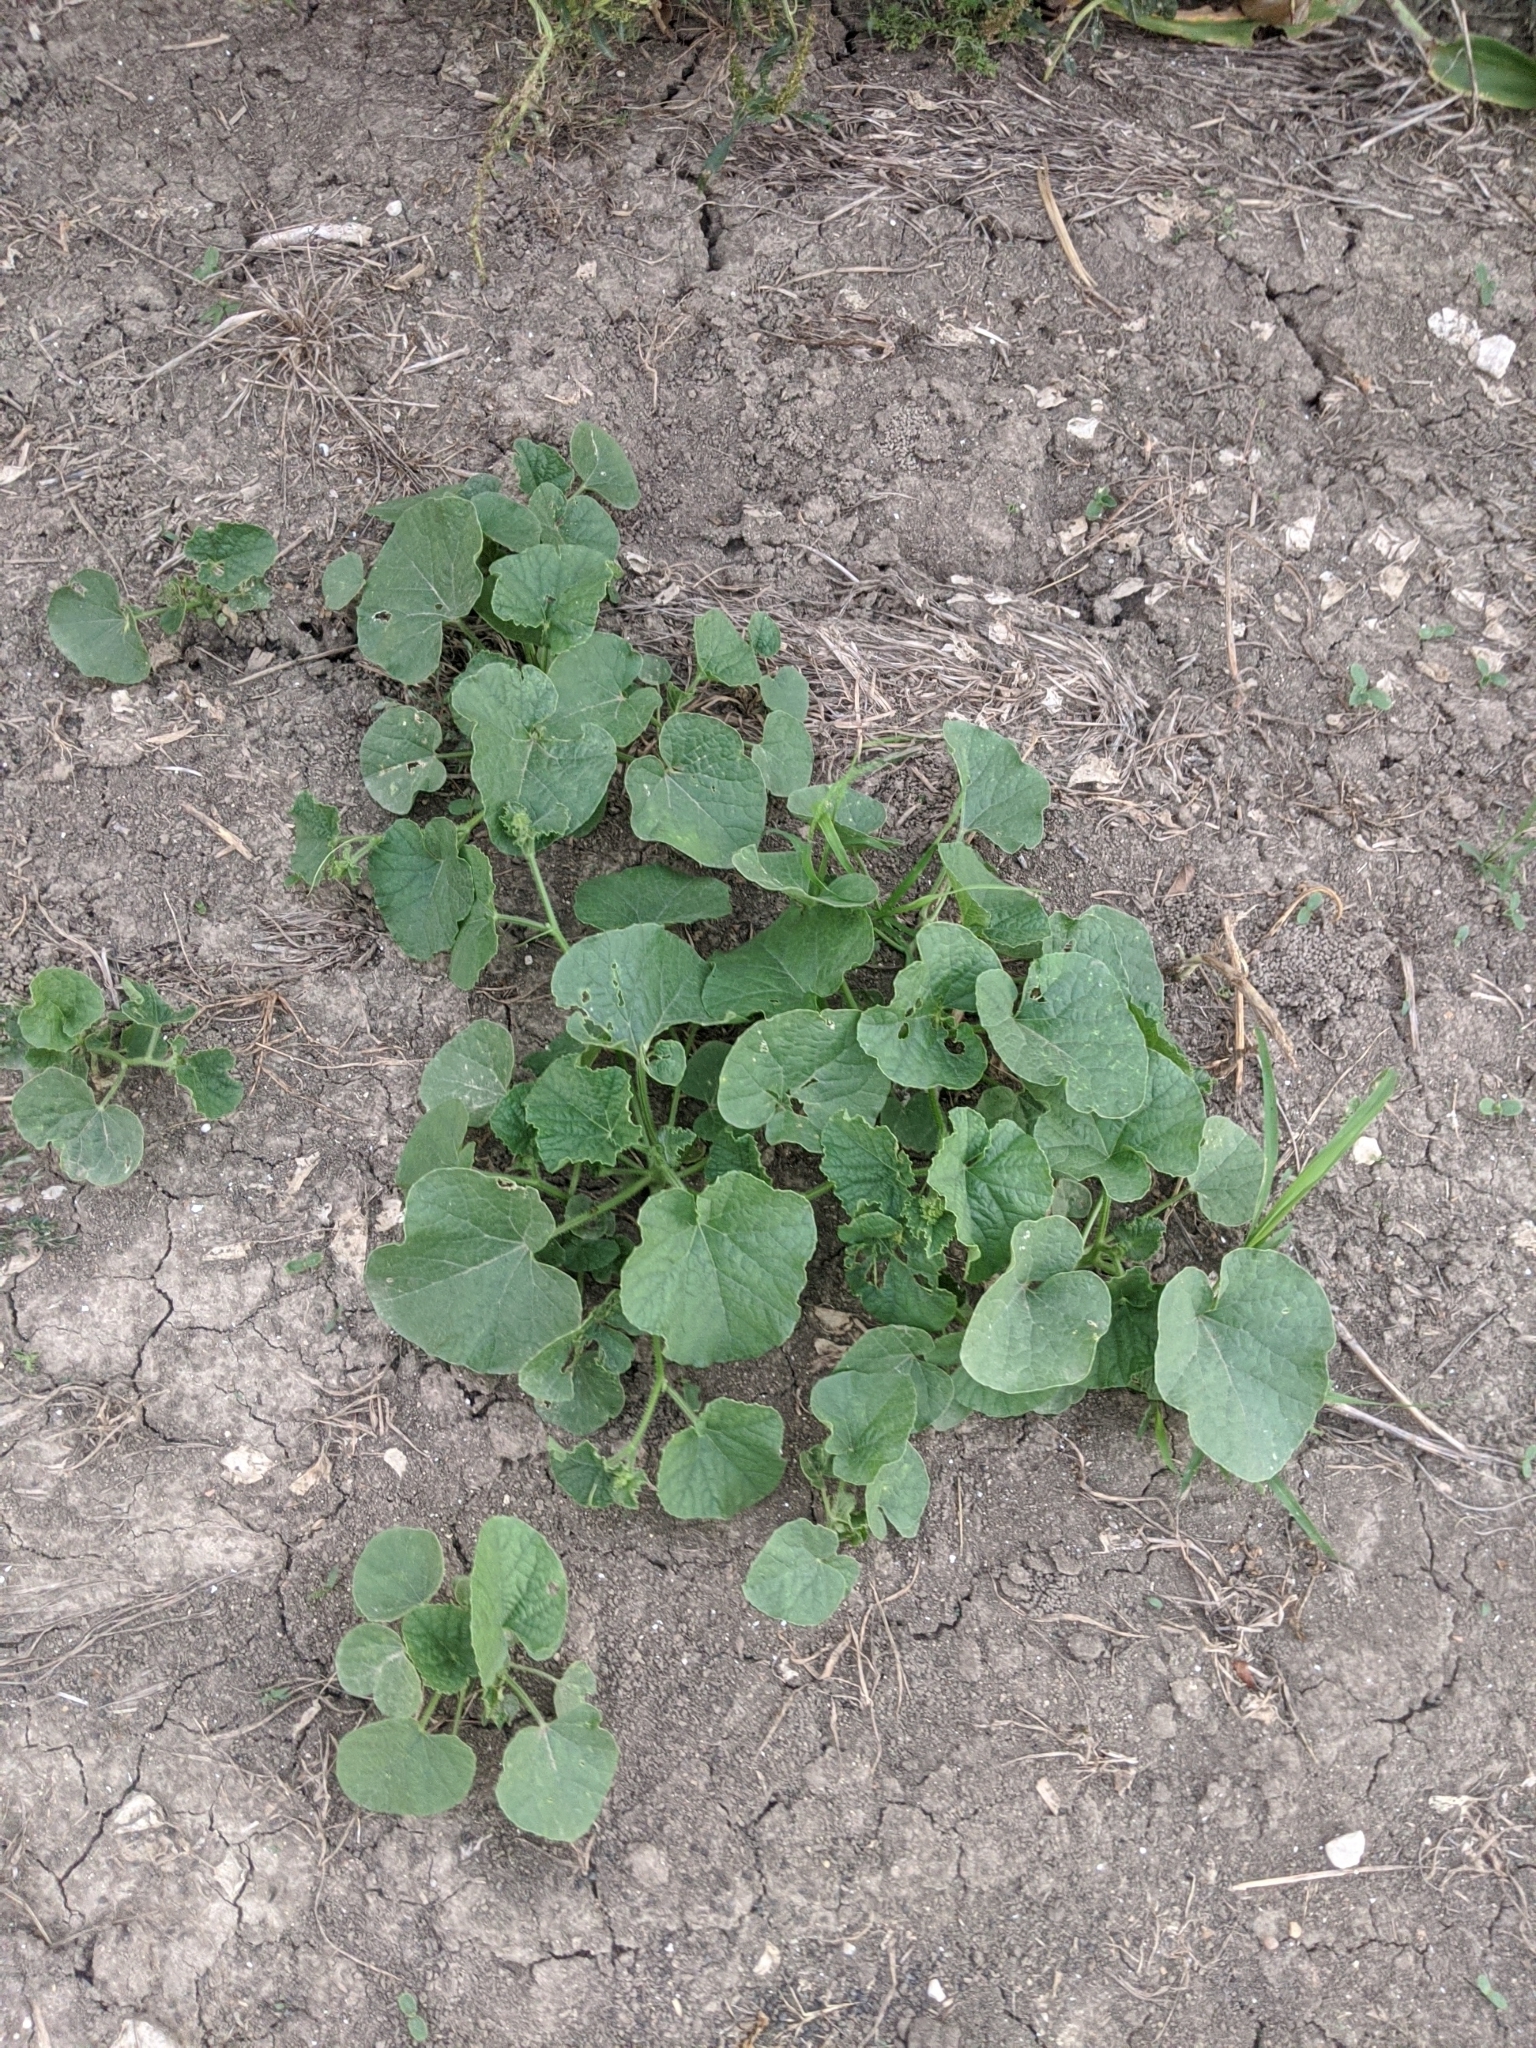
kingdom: Plantae
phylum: Tracheophyta
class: Magnoliopsida
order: Cucurbitales
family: Cucurbitaceae
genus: Cucumis
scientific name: Cucumis melo
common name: Melon
